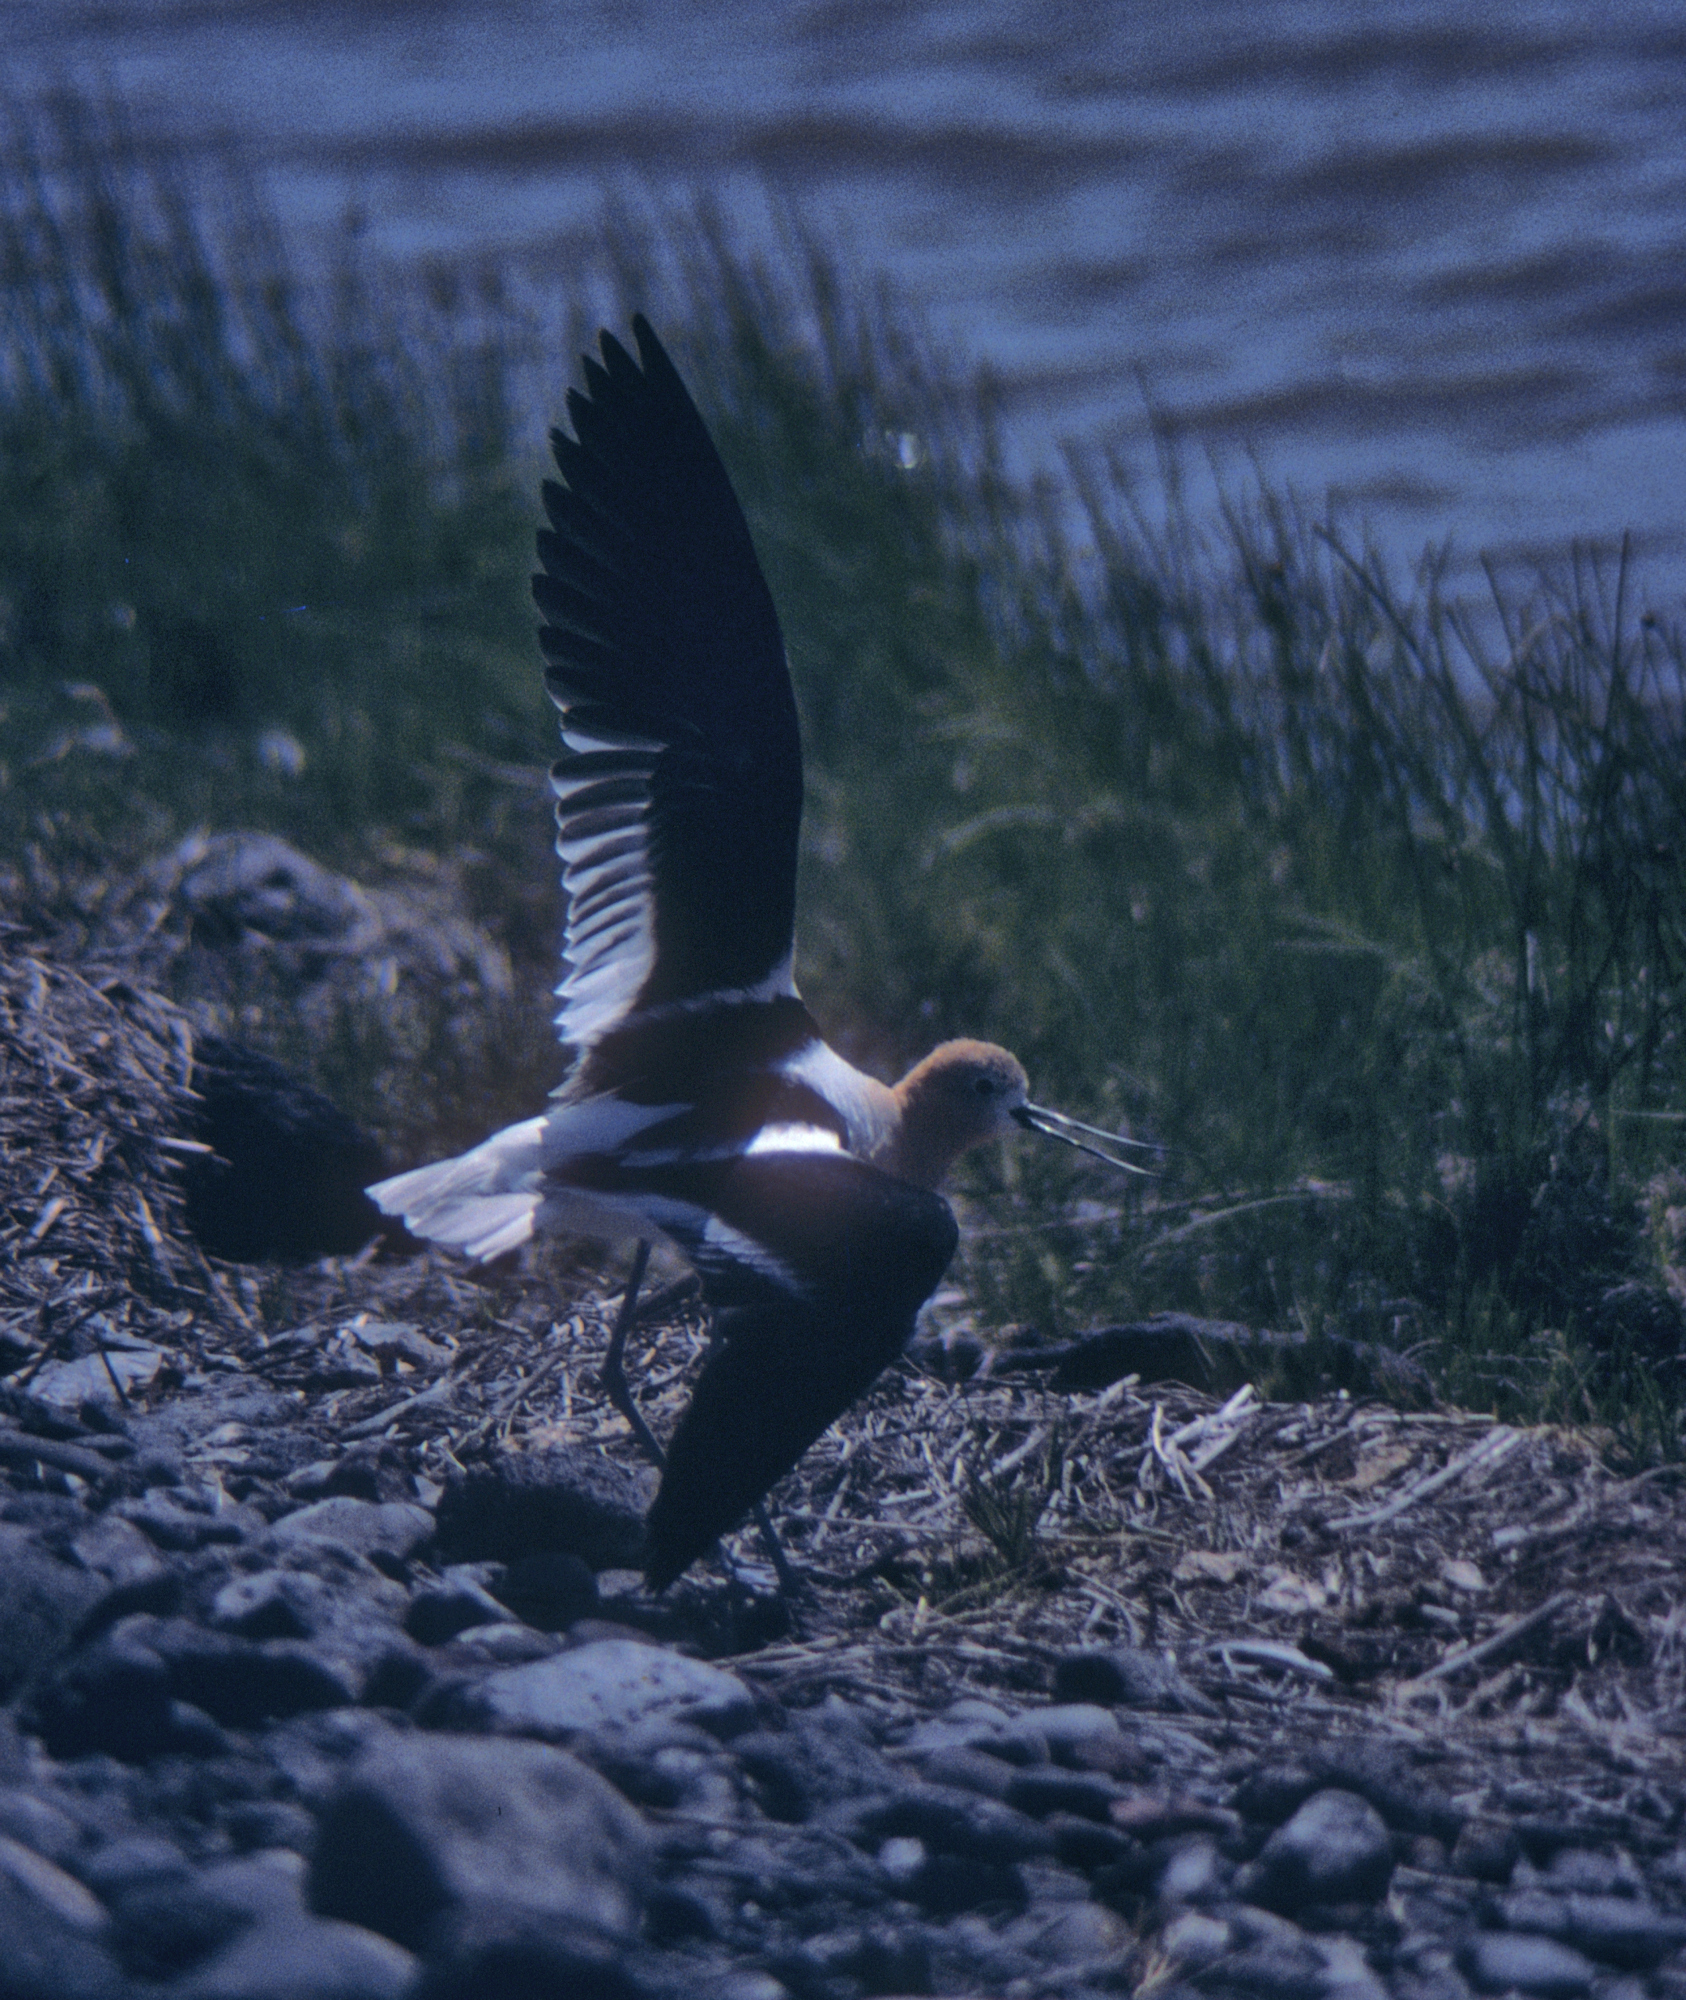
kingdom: Animalia
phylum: Chordata
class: Aves
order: Charadriiformes
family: Recurvirostridae
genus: Recurvirostra
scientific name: Recurvirostra americana
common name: American avocet
